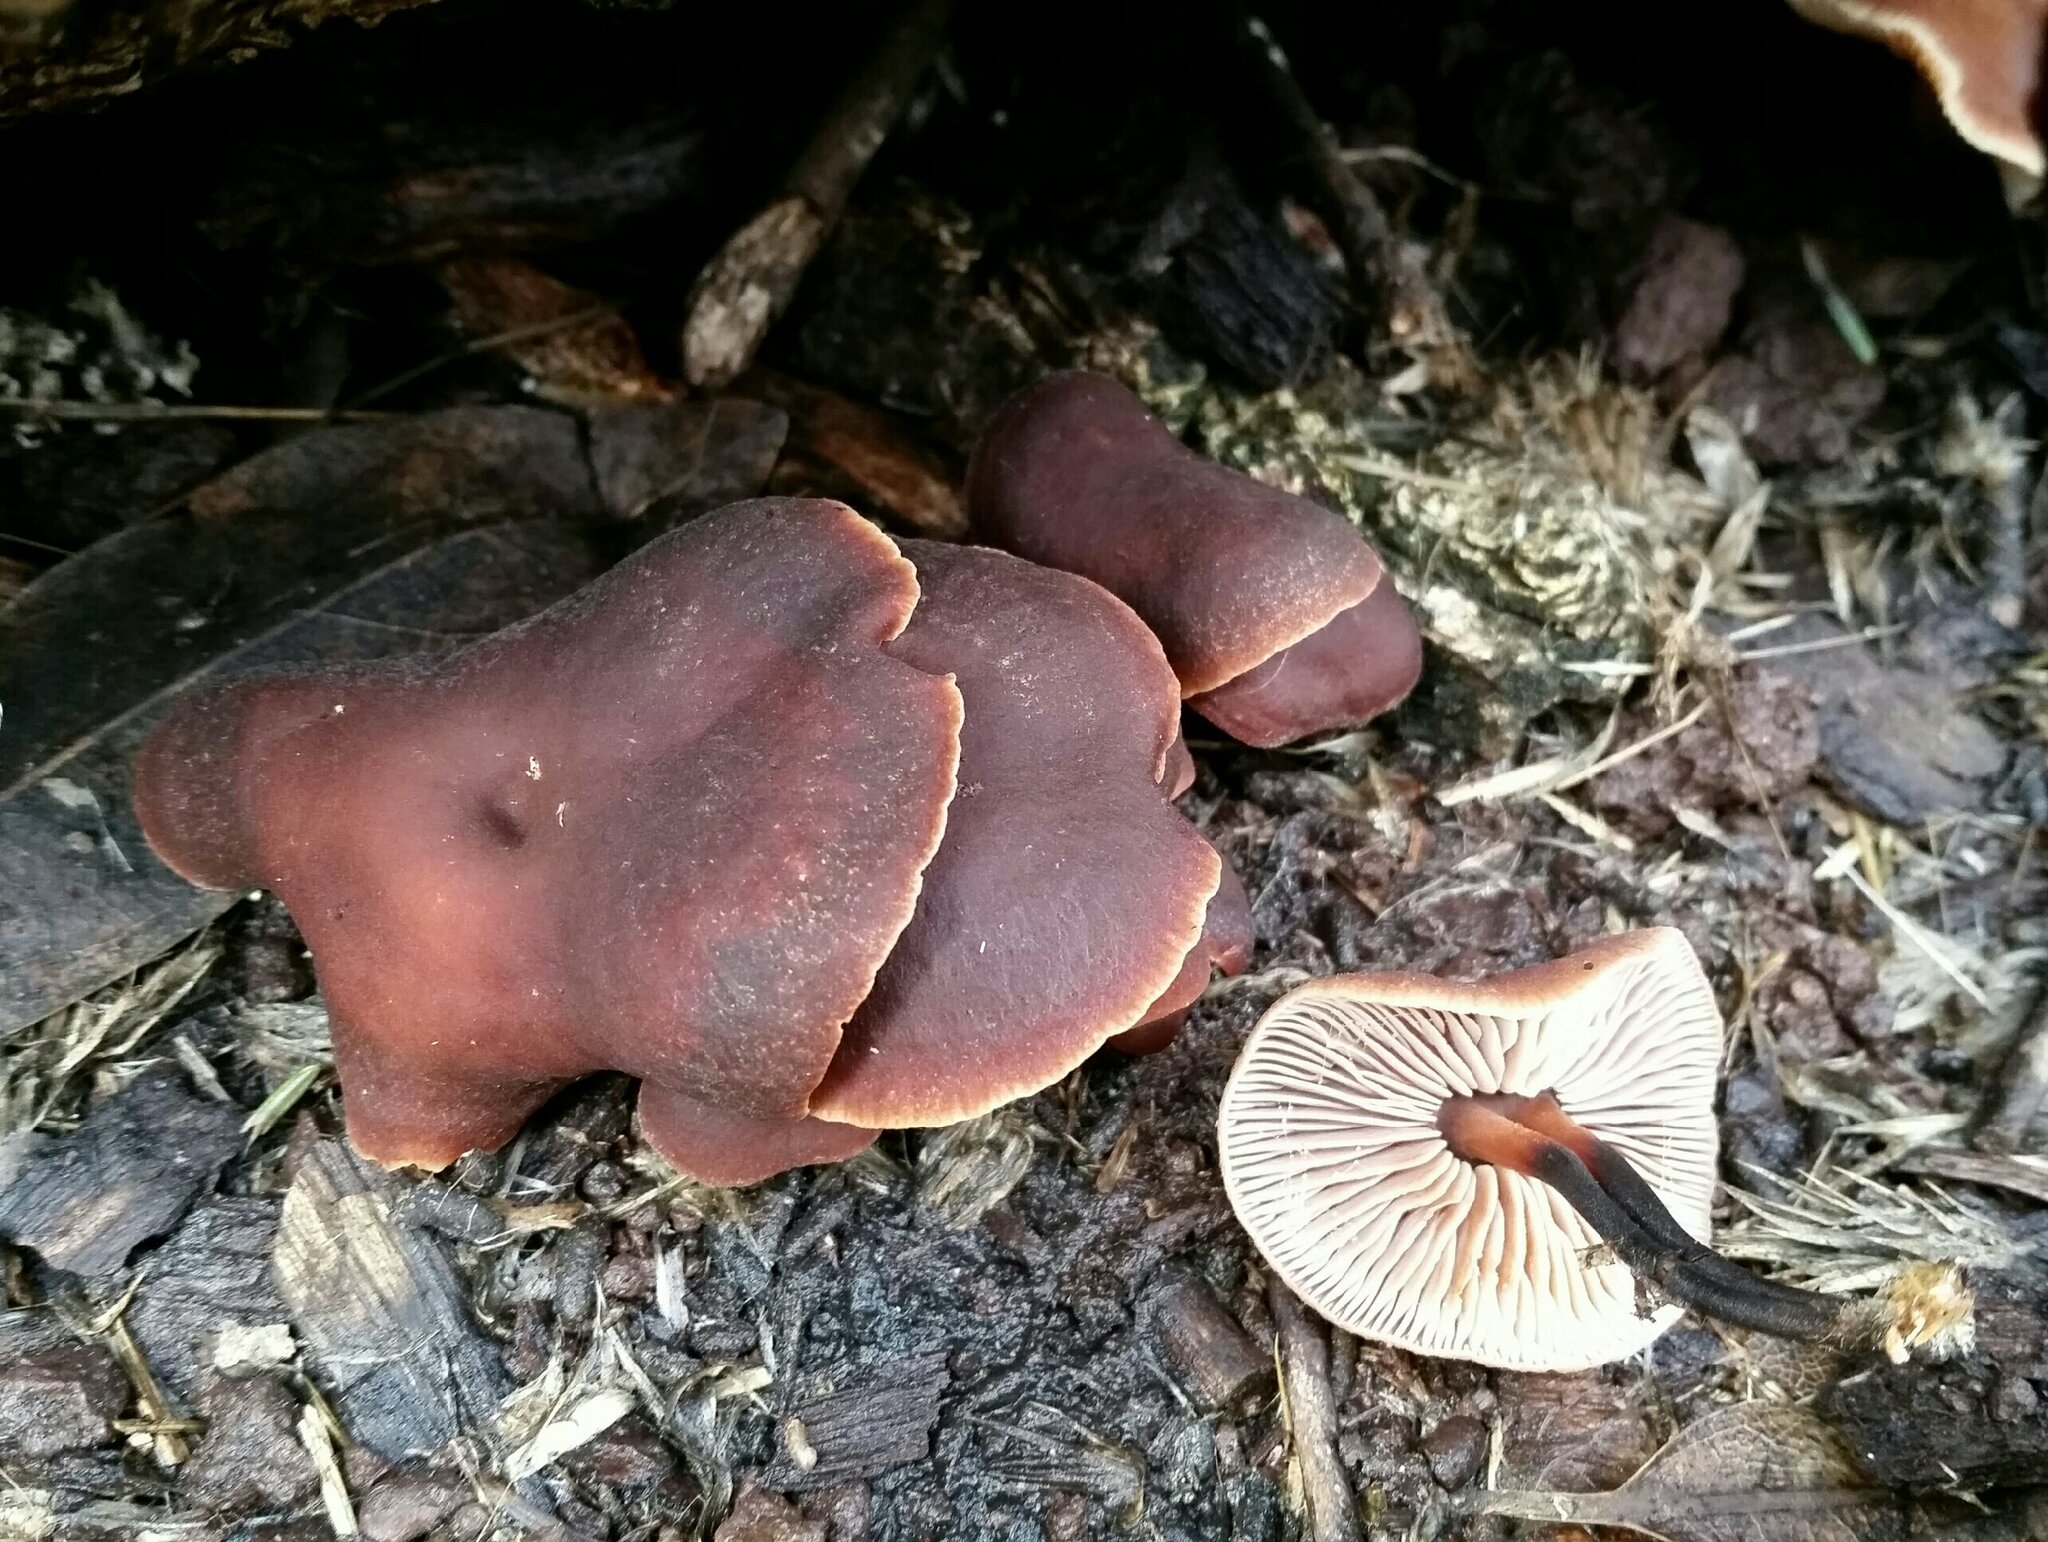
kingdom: Fungi
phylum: Basidiomycota
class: Agaricomycetes
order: Agaricales
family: Omphalotaceae
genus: Gymnopus
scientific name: Gymnopus brassicolens
